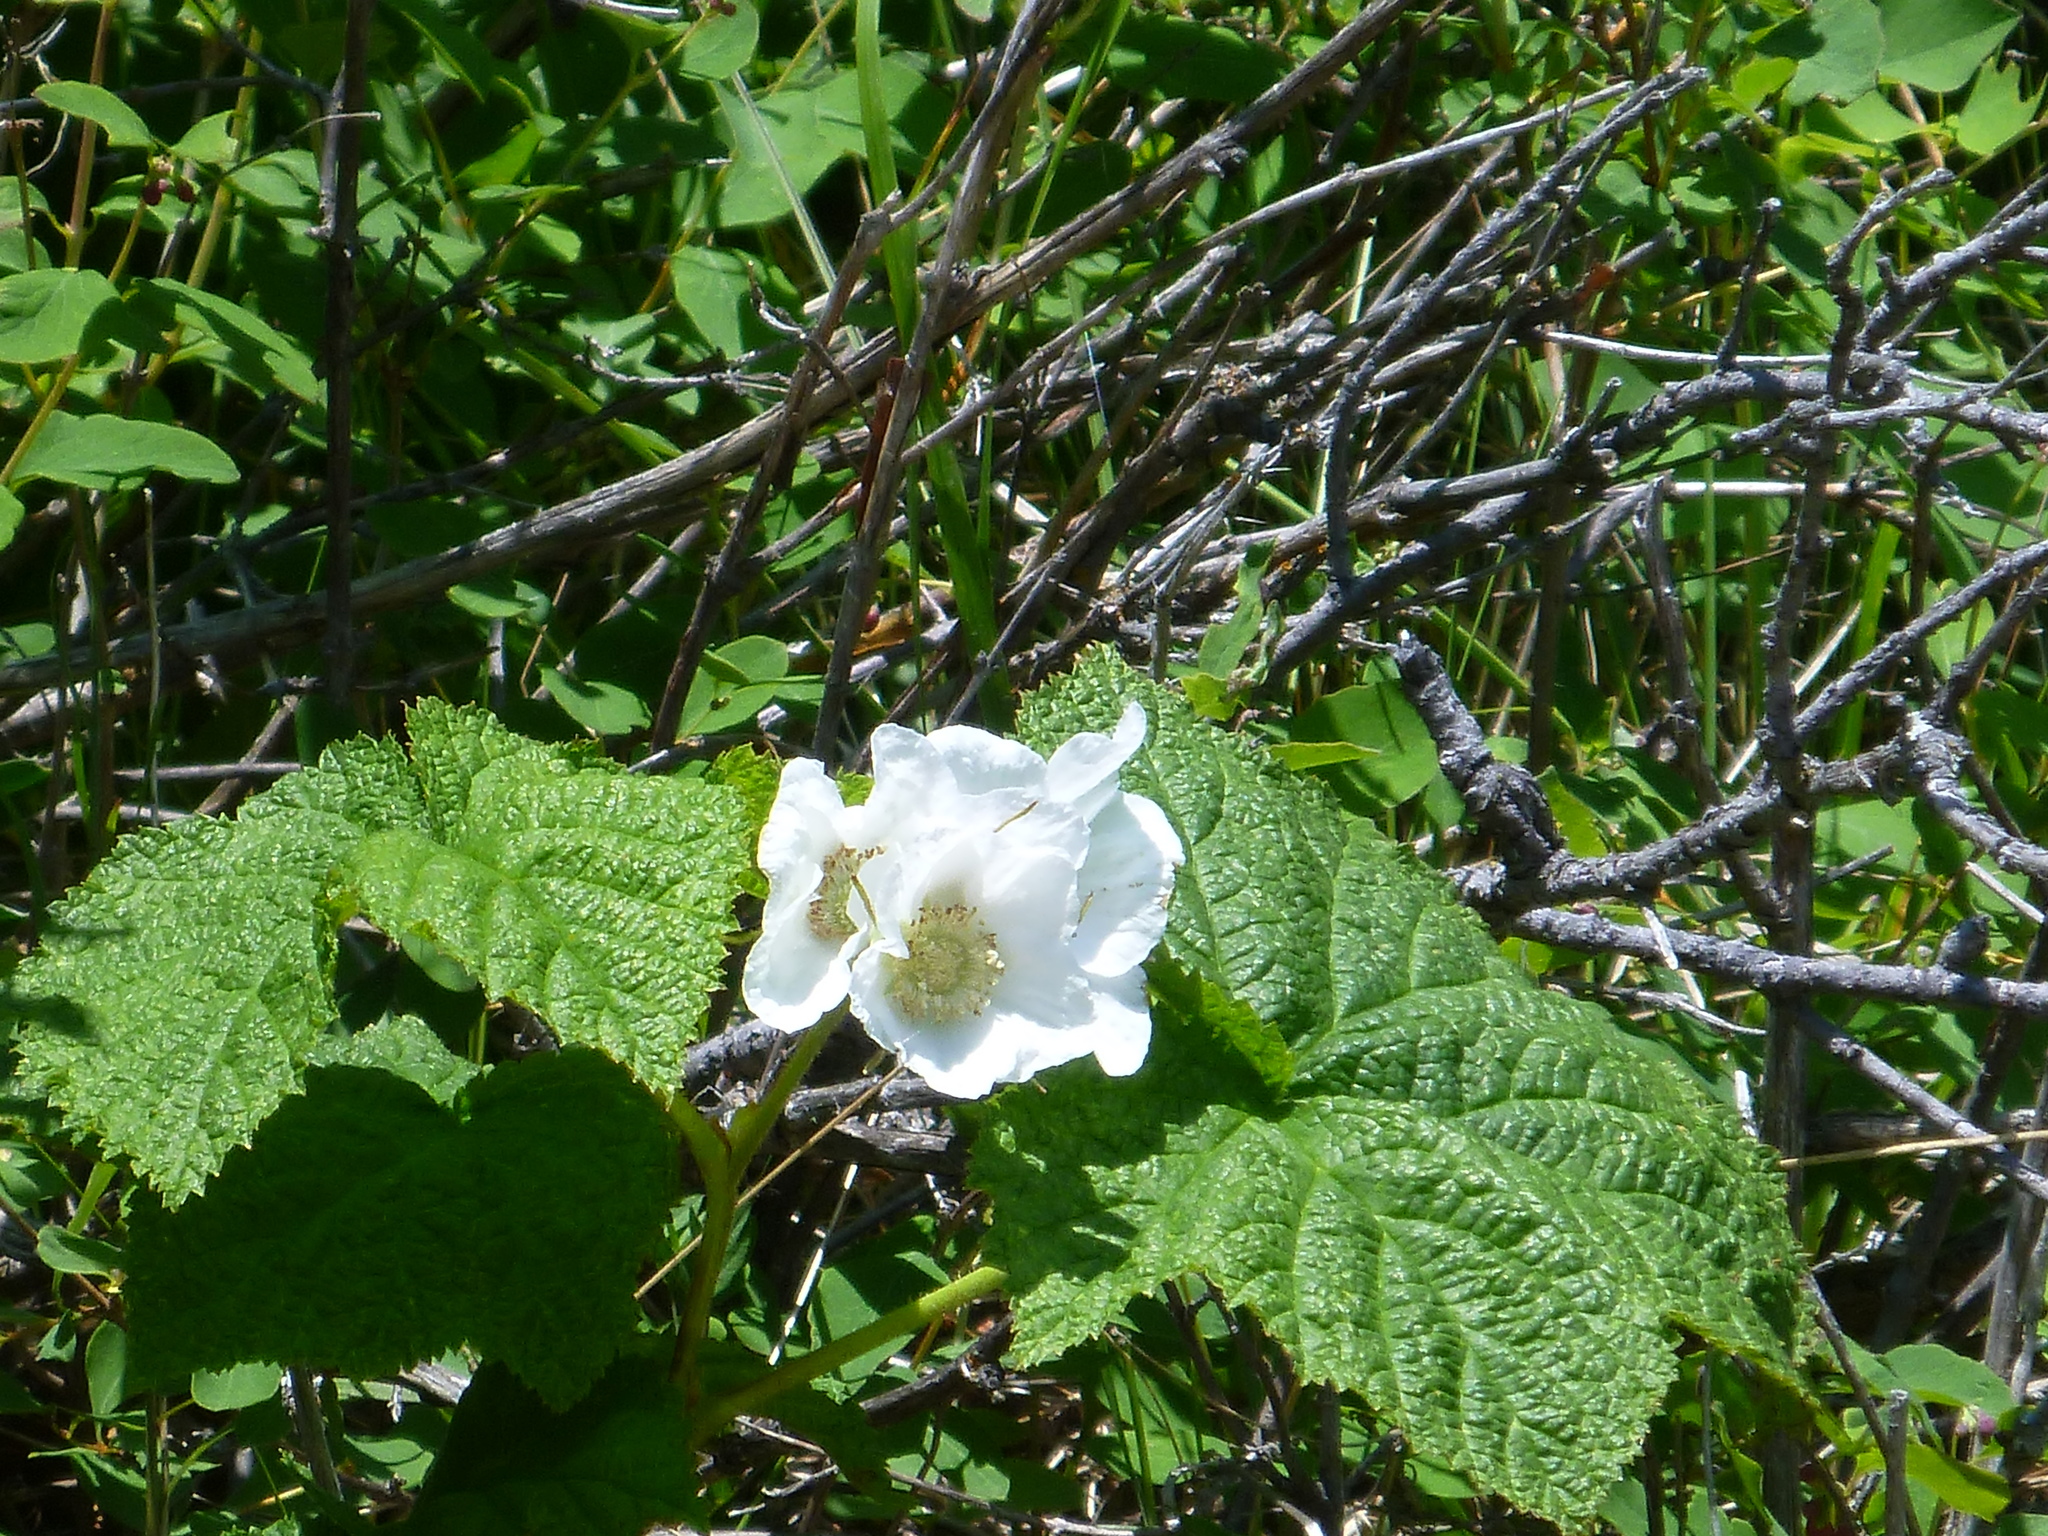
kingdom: Plantae
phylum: Tracheophyta
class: Magnoliopsida
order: Rosales
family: Rosaceae
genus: Rubus
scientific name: Rubus parviflorus
